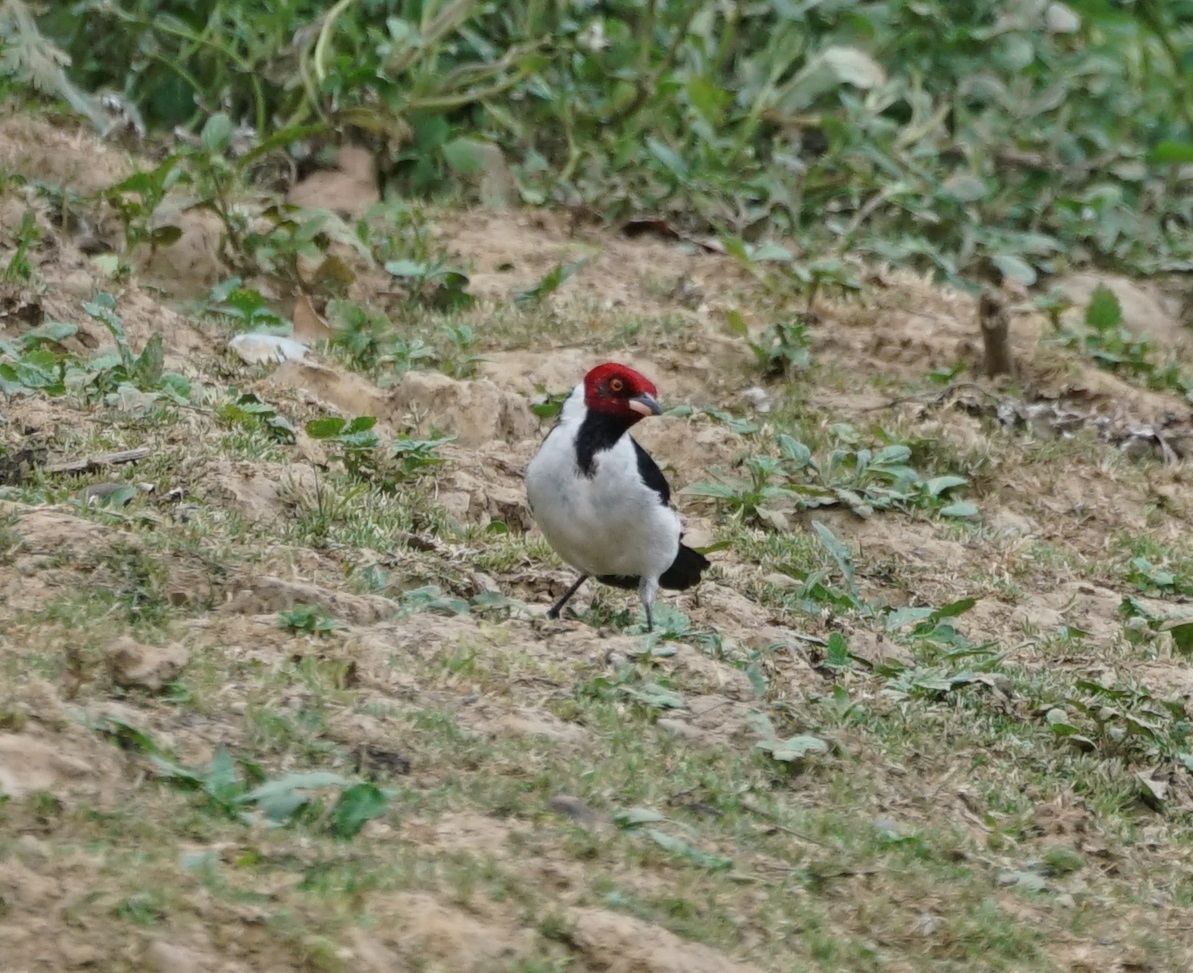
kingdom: Animalia
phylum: Chordata
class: Aves
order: Passeriformes
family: Thraupidae
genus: Paroaria
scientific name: Paroaria gularis
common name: Red-capped cardinal
